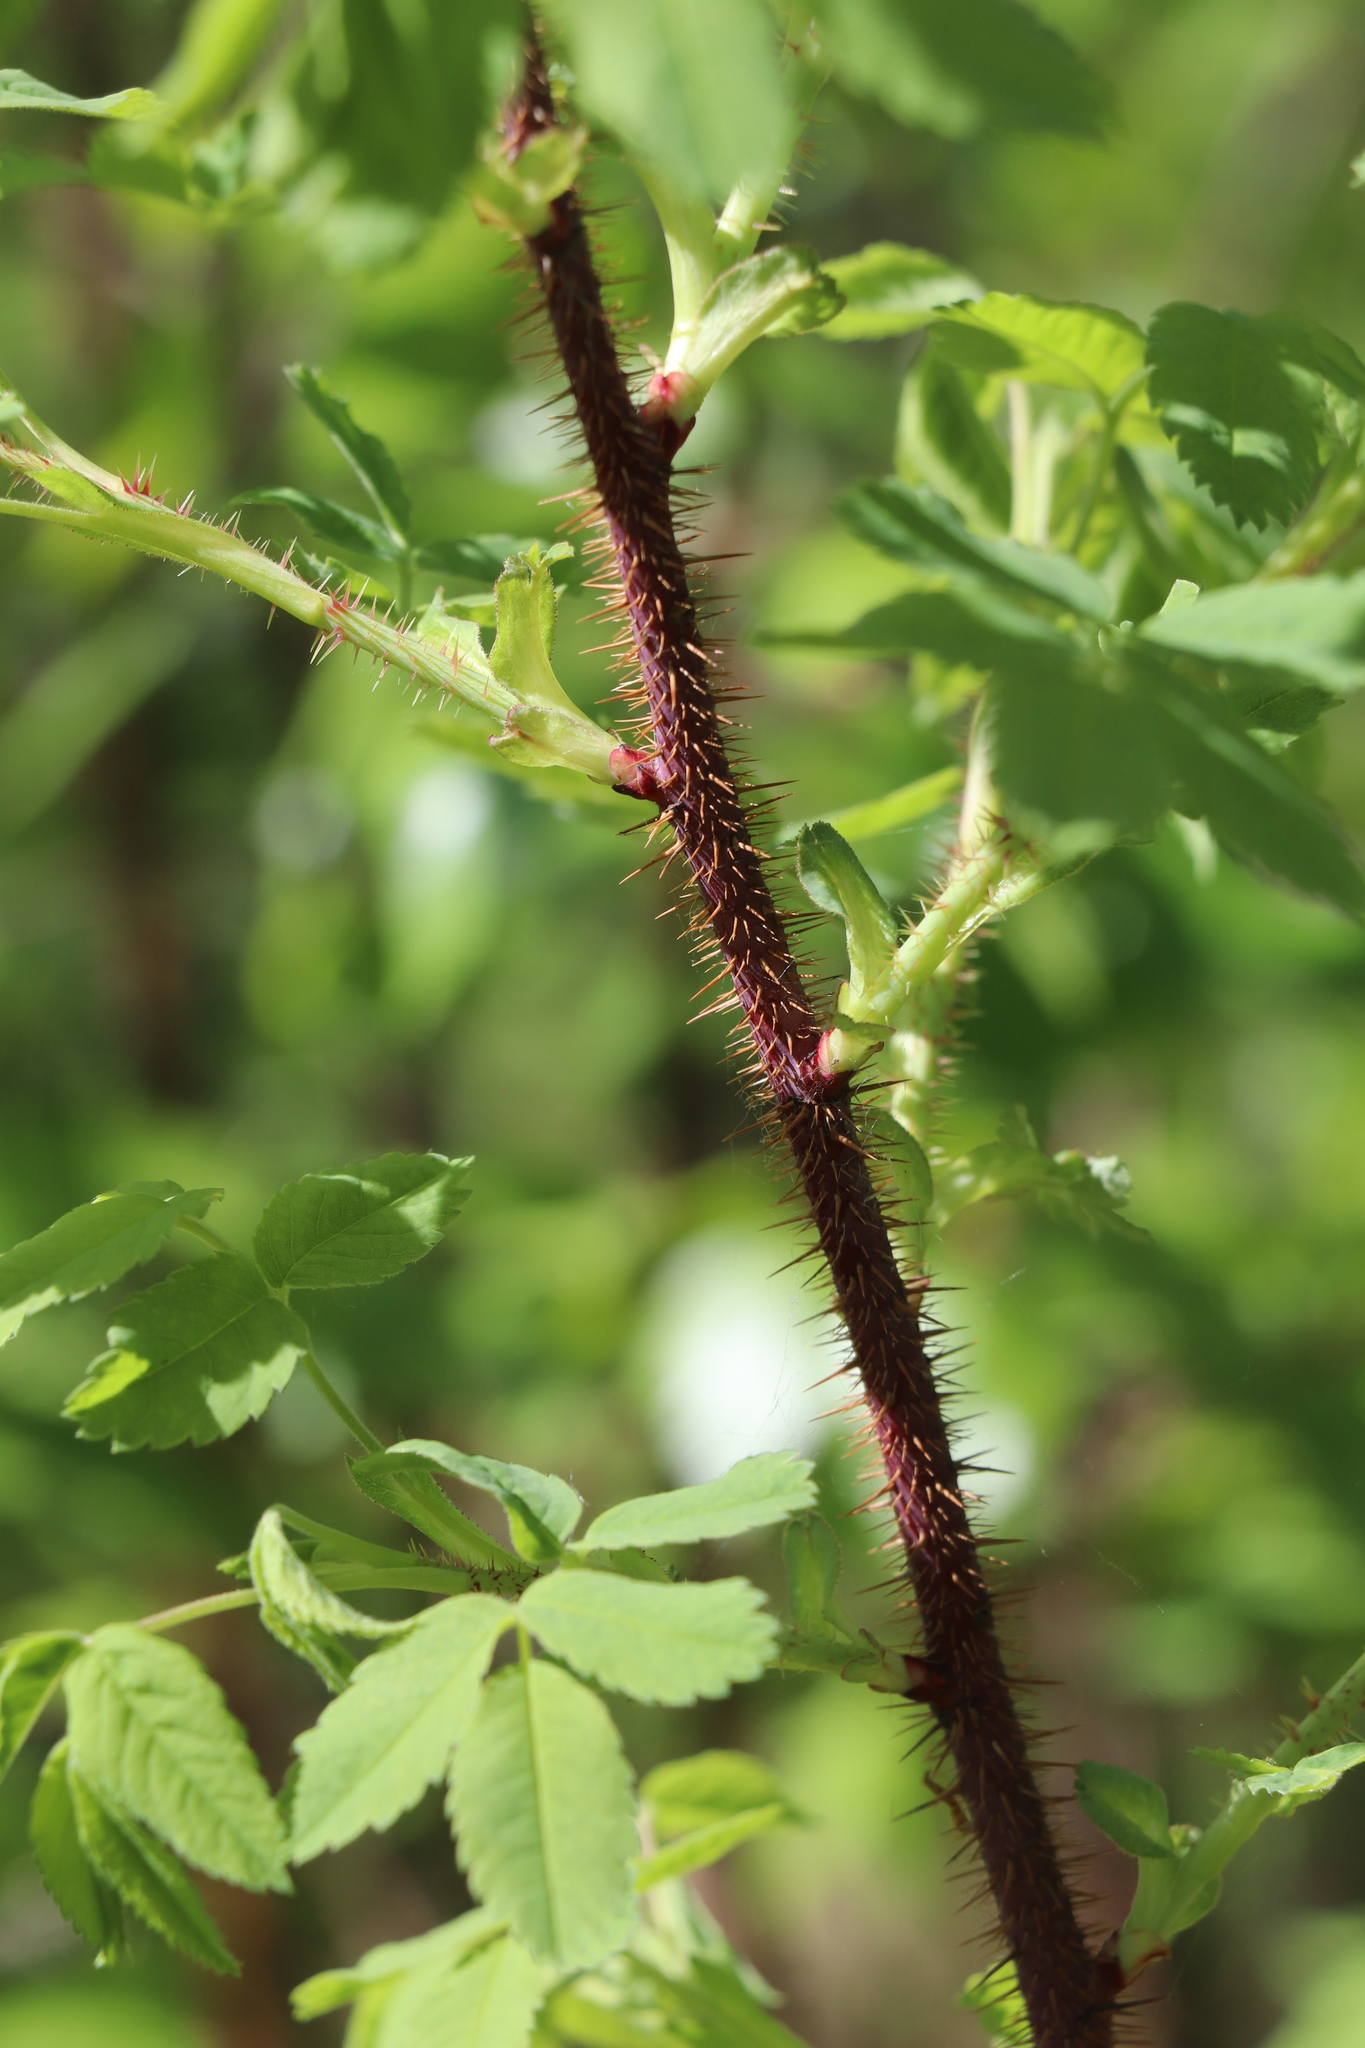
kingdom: Plantae
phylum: Tracheophyta
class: Magnoliopsida
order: Rosales
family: Rosaceae
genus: Rosa
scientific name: Rosa acicularis
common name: Prickly rose
